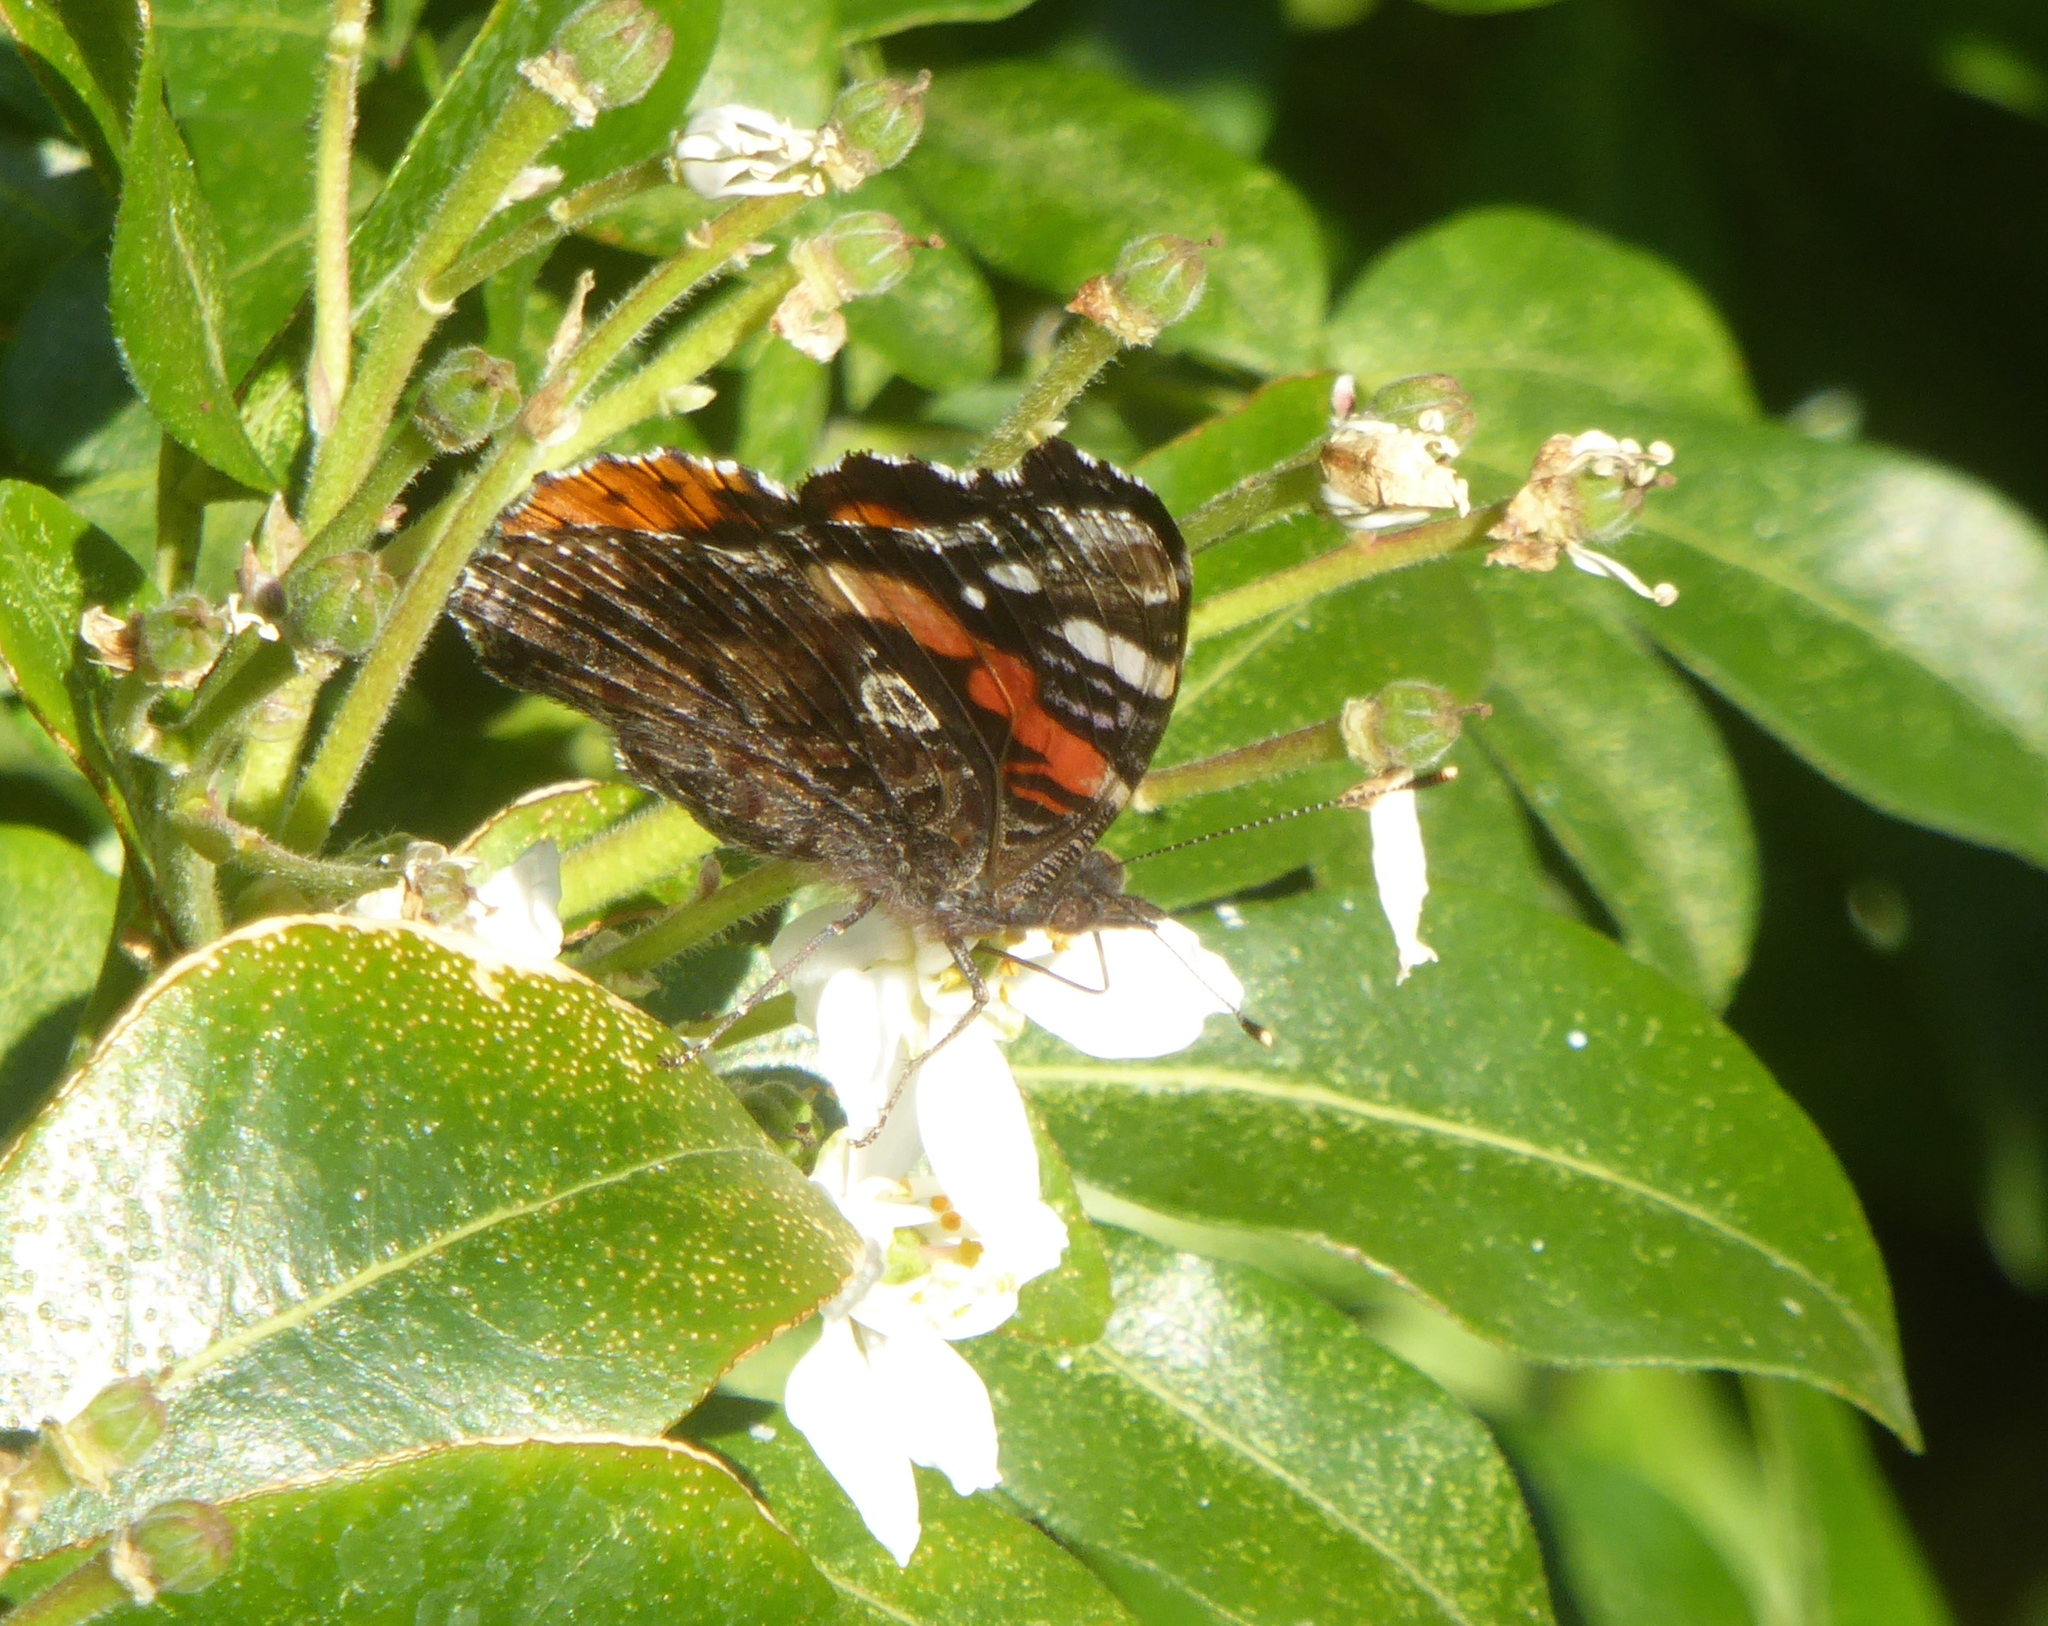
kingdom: Animalia
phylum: Arthropoda
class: Insecta
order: Lepidoptera
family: Nymphalidae
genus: Vanessa
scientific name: Vanessa atalanta
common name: Red admiral
